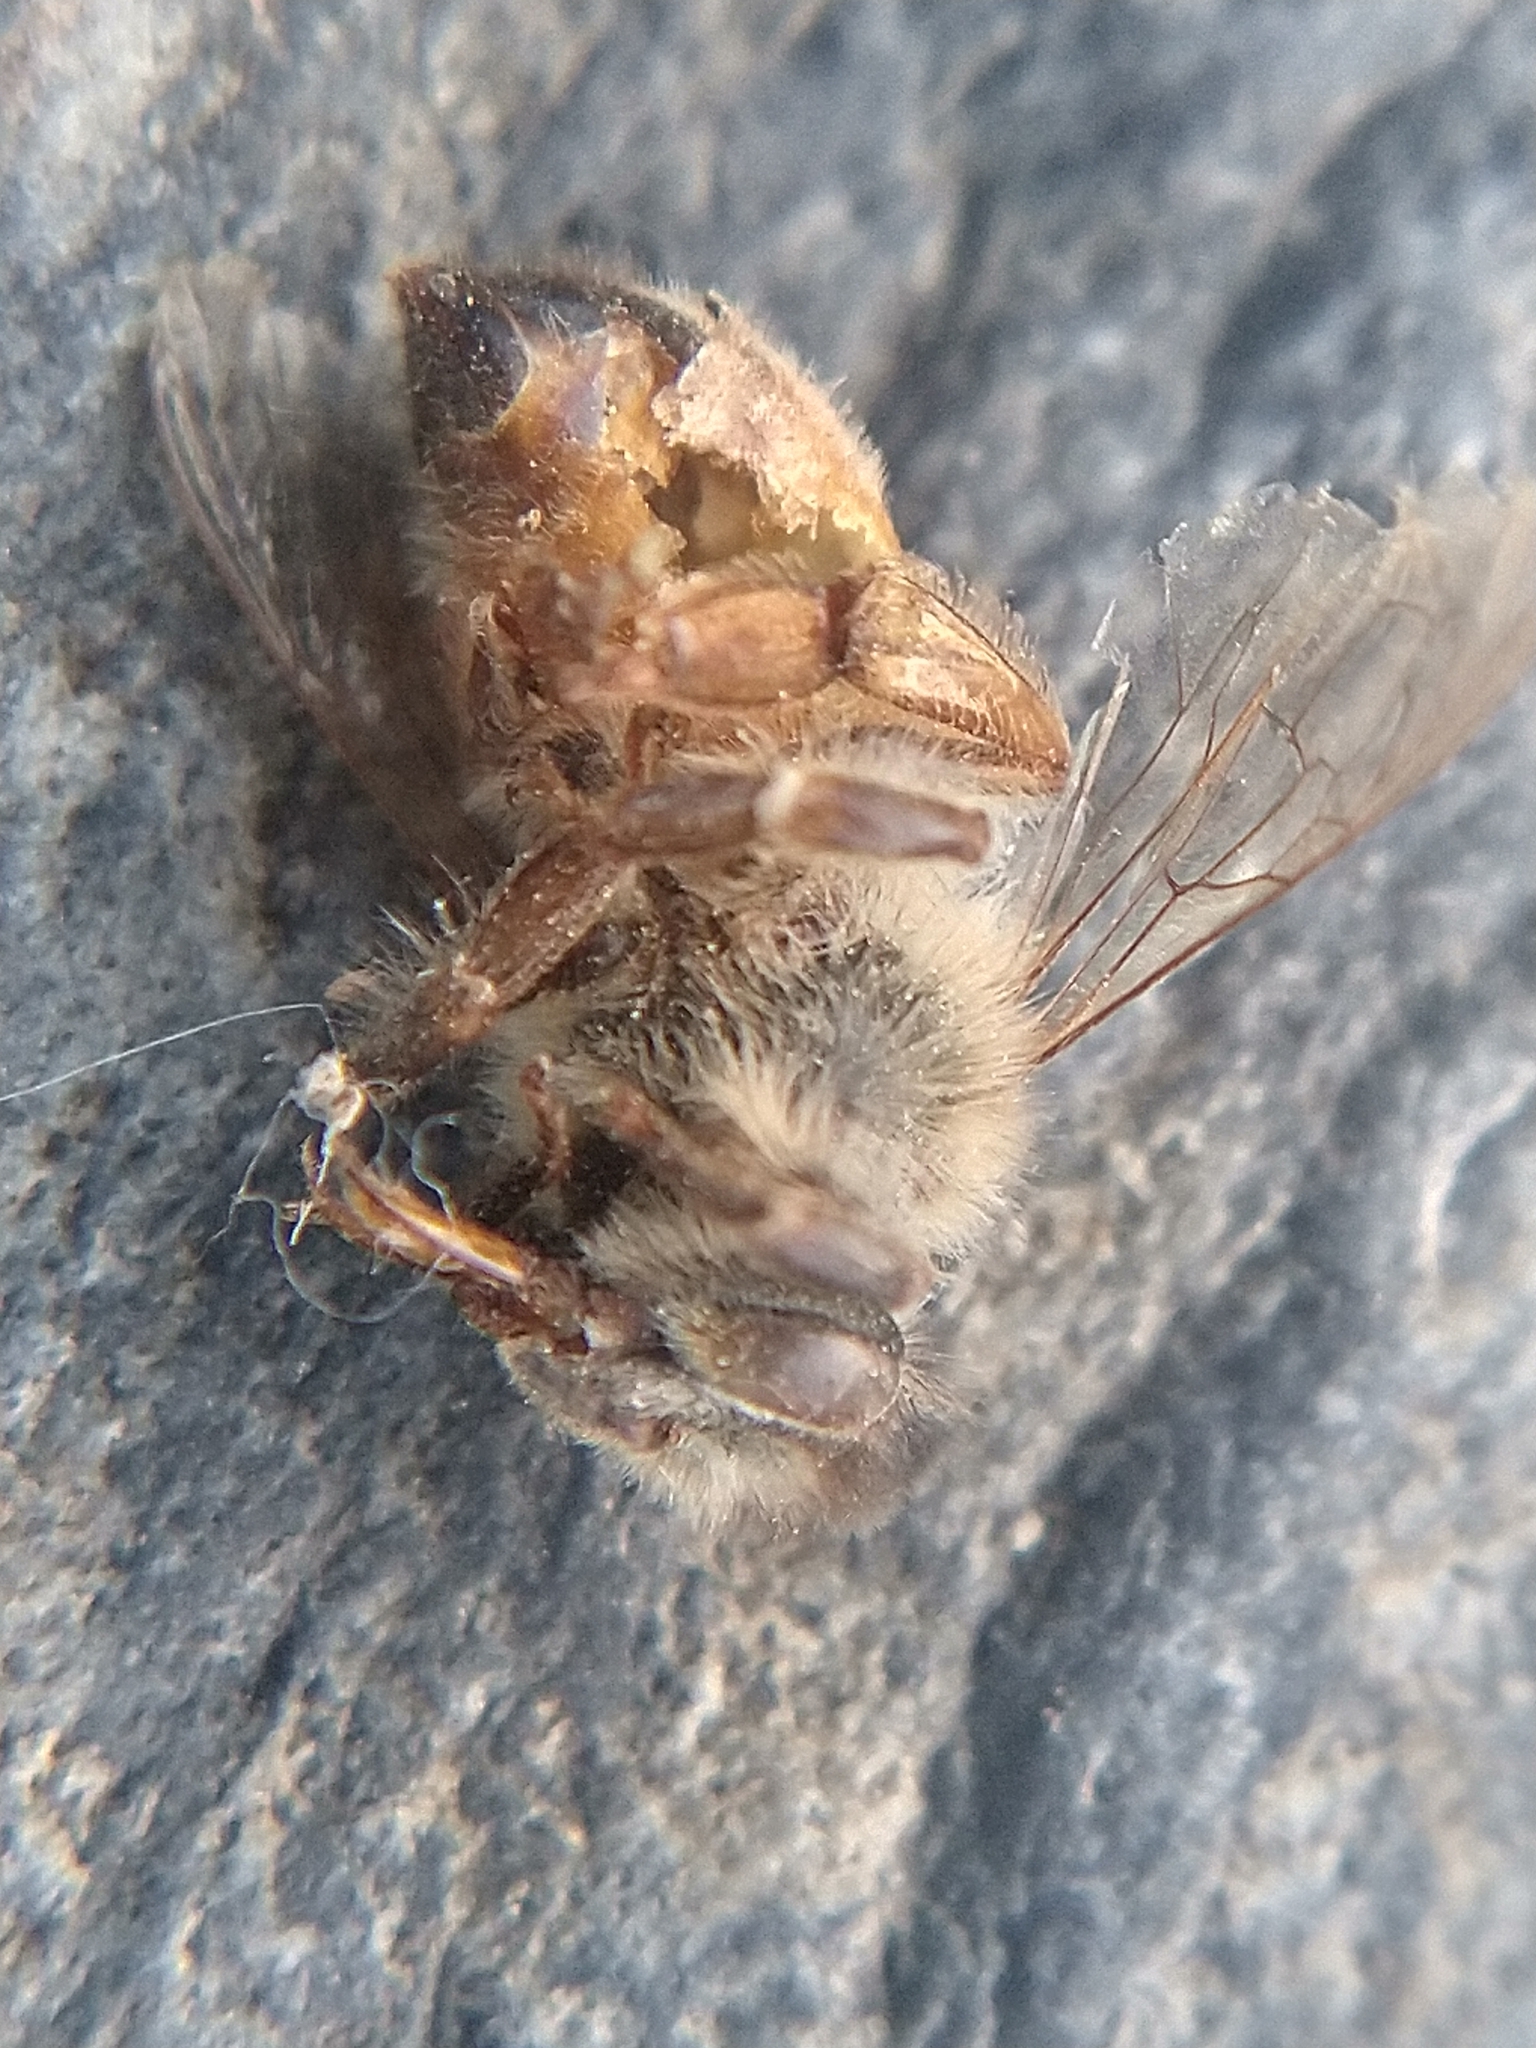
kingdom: Animalia
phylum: Arthropoda
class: Insecta
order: Hymenoptera
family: Apidae
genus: Apis
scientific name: Apis mellifera
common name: Honey bee
